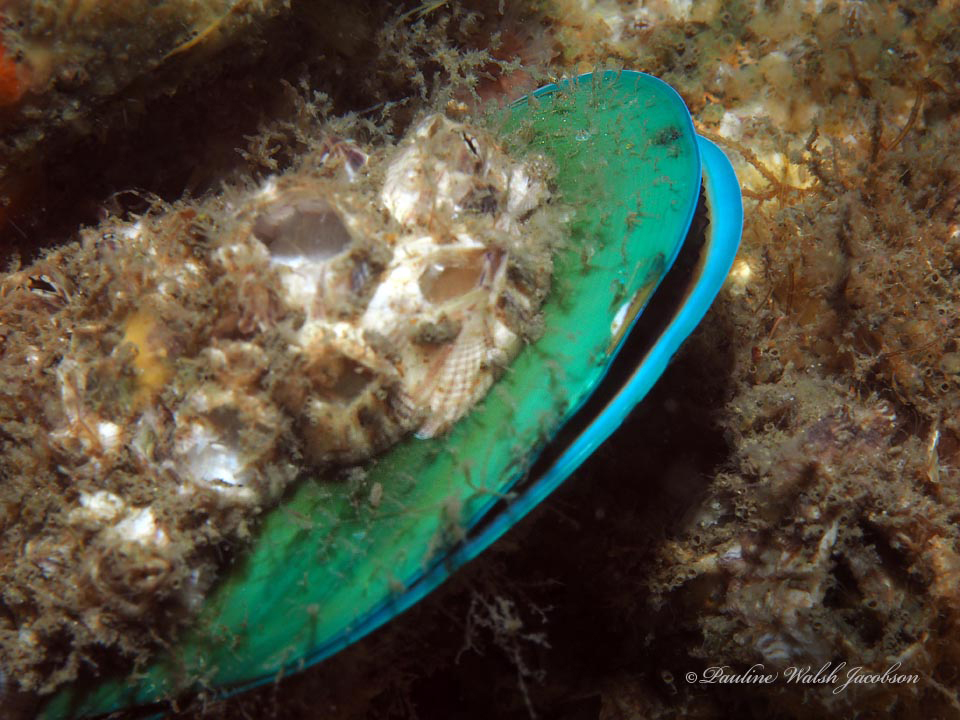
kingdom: Animalia
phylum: Mollusca
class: Bivalvia
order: Mytilida
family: Mytilidae
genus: Perna
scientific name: Perna viridis
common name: Green mussel
